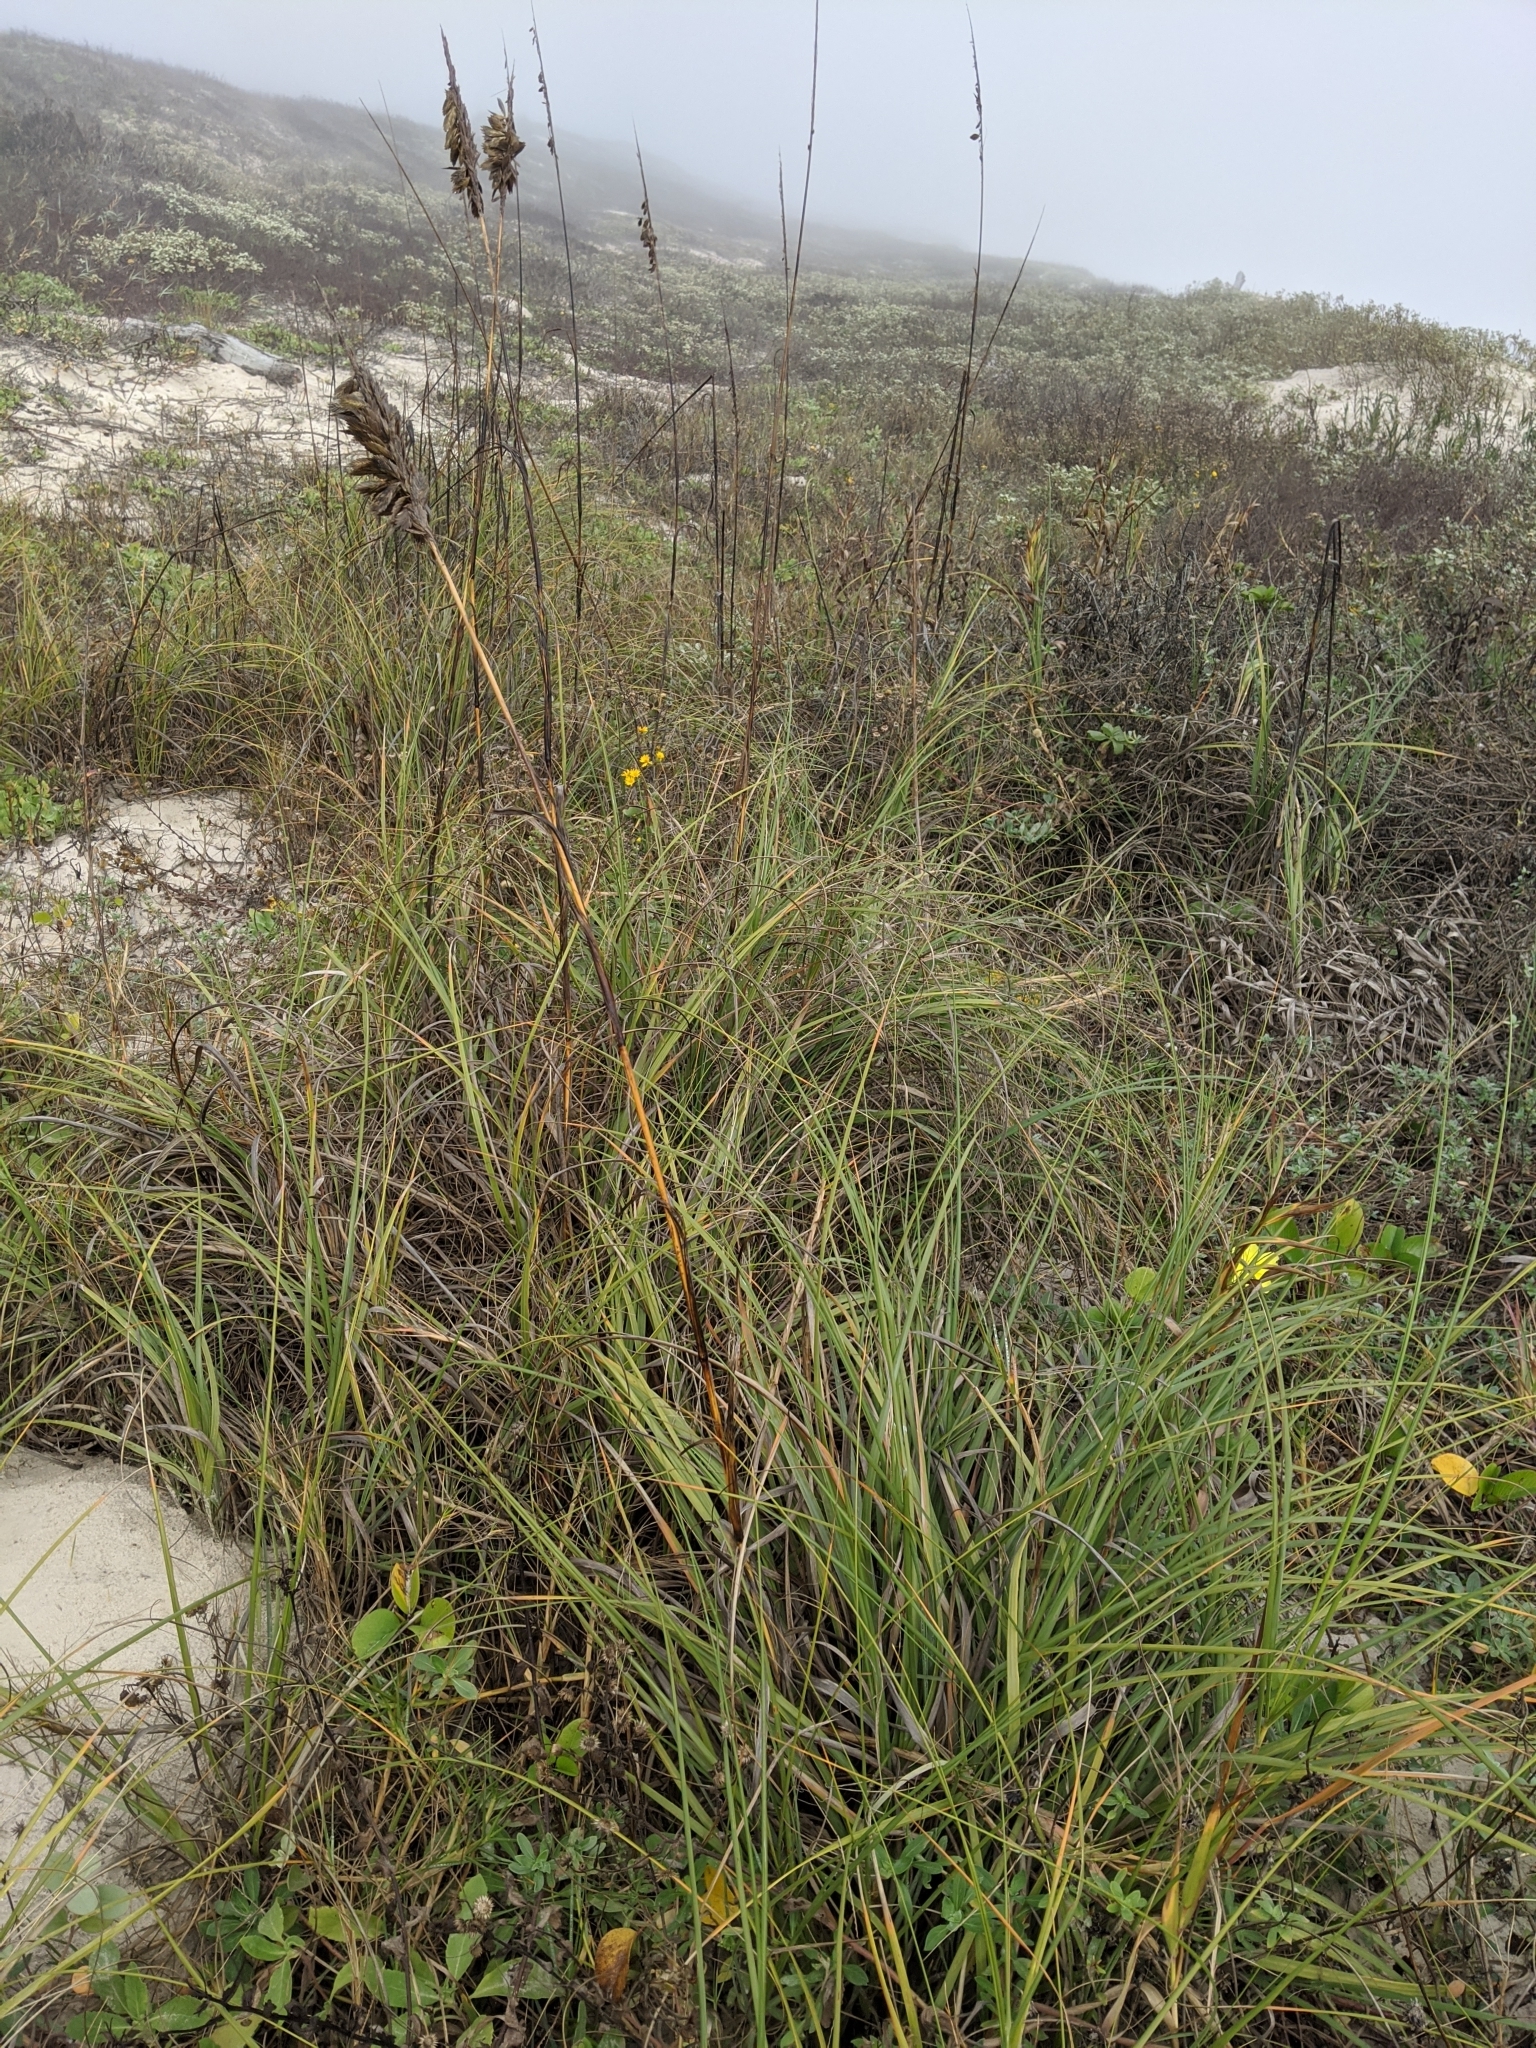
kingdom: Plantae
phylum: Tracheophyta
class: Liliopsida
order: Poales
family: Poaceae
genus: Uniola
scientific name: Uniola paniculata
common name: Seaside-oats
